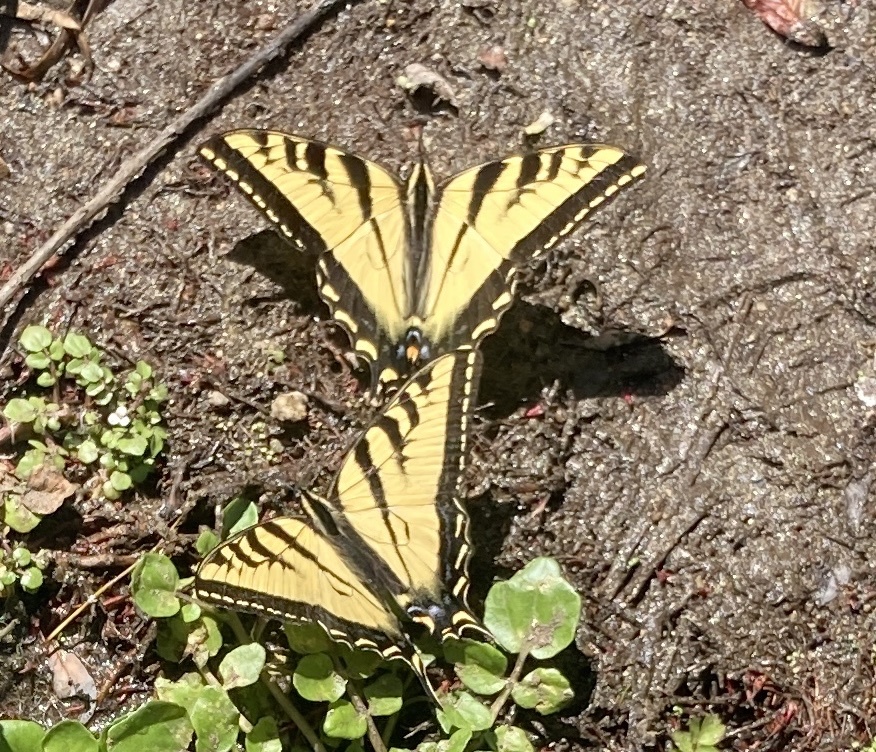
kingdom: Animalia
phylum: Arthropoda
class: Insecta
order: Lepidoptera
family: Papilionidae
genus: Papilio
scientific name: Papilio rutulus
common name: Western tiger swallowtail
